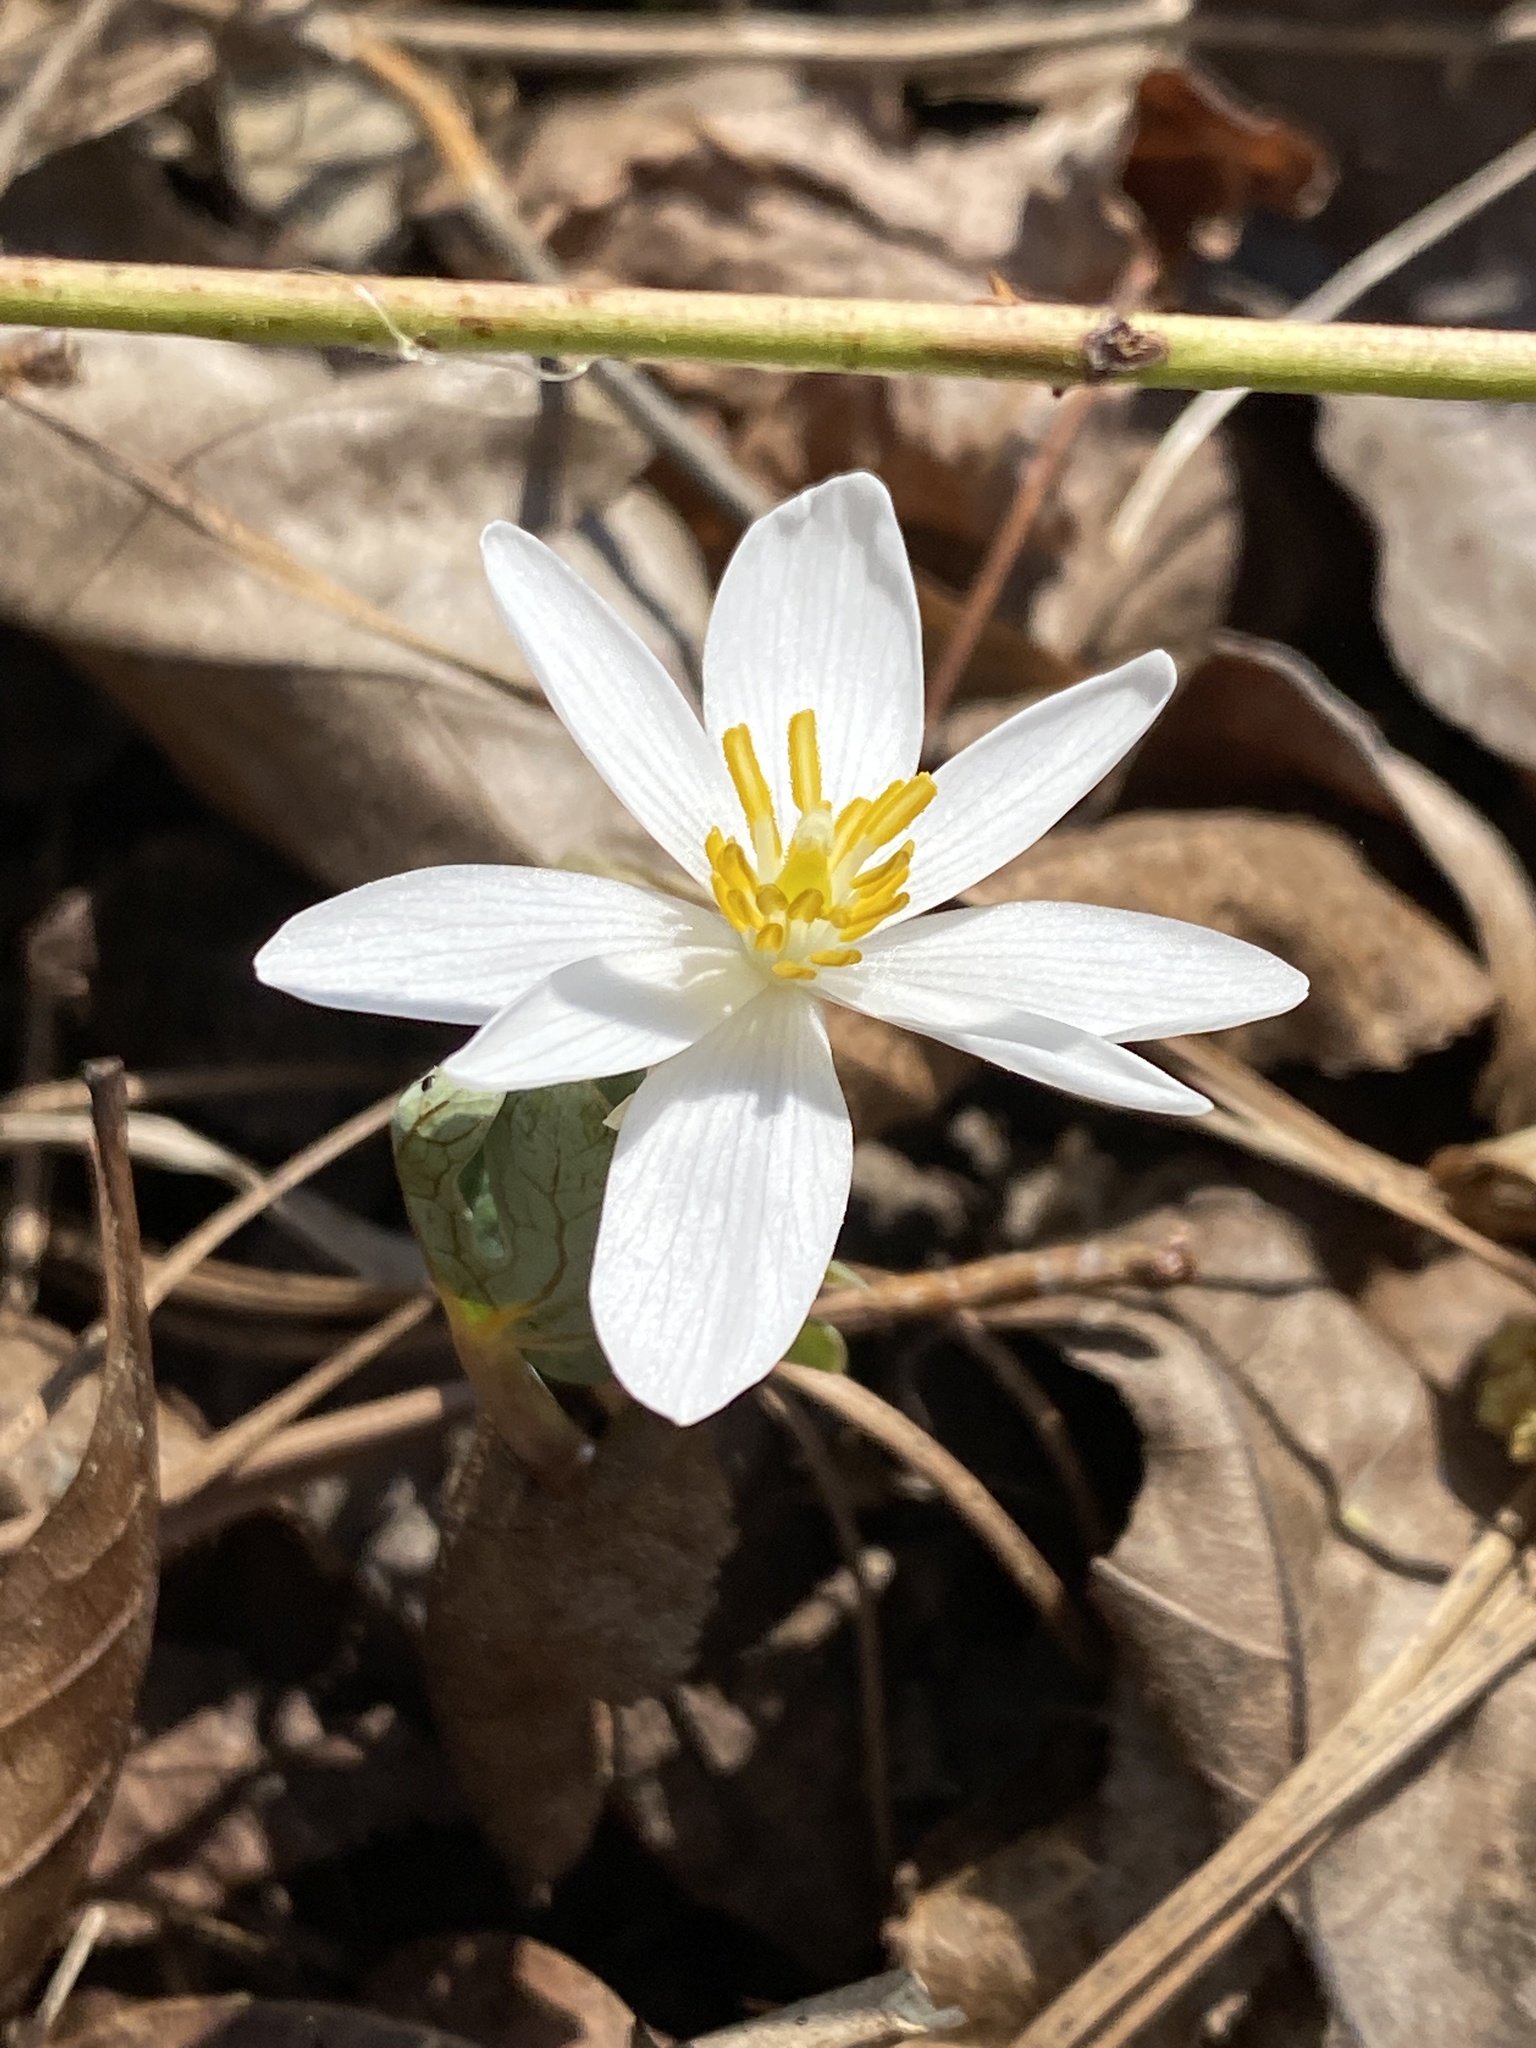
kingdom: Plantae
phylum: Tracheophyta
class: Magnoliopsida
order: Ranunculales
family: Papaveraceae
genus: Sanguinaria
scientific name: Sanguinaria canadensis
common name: Bloodroot
